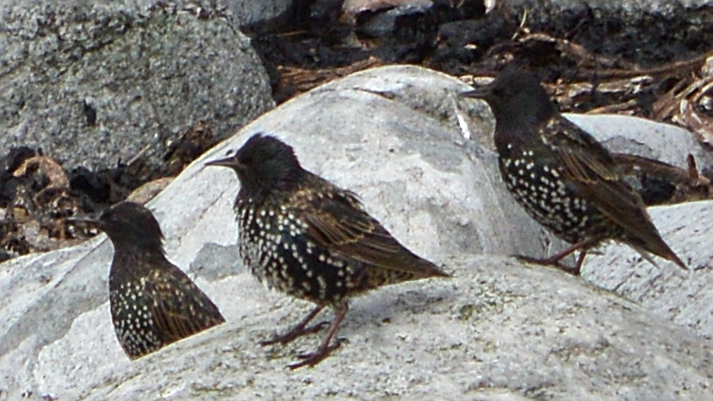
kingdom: Animalia
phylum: Chordata
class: Aves
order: Passeriformes
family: Sturnidae
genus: Sturnus
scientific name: Sturnus vulgaris
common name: Common starling
